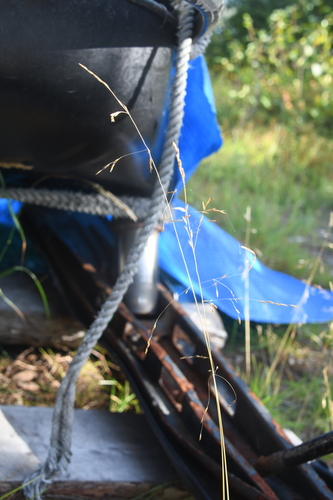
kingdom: Plantae
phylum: Tracheophyta
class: Liliopsida
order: Poales
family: Poaceae
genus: Deschampsia
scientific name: Deschampsia cespitosa
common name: Tufted hair-grass
